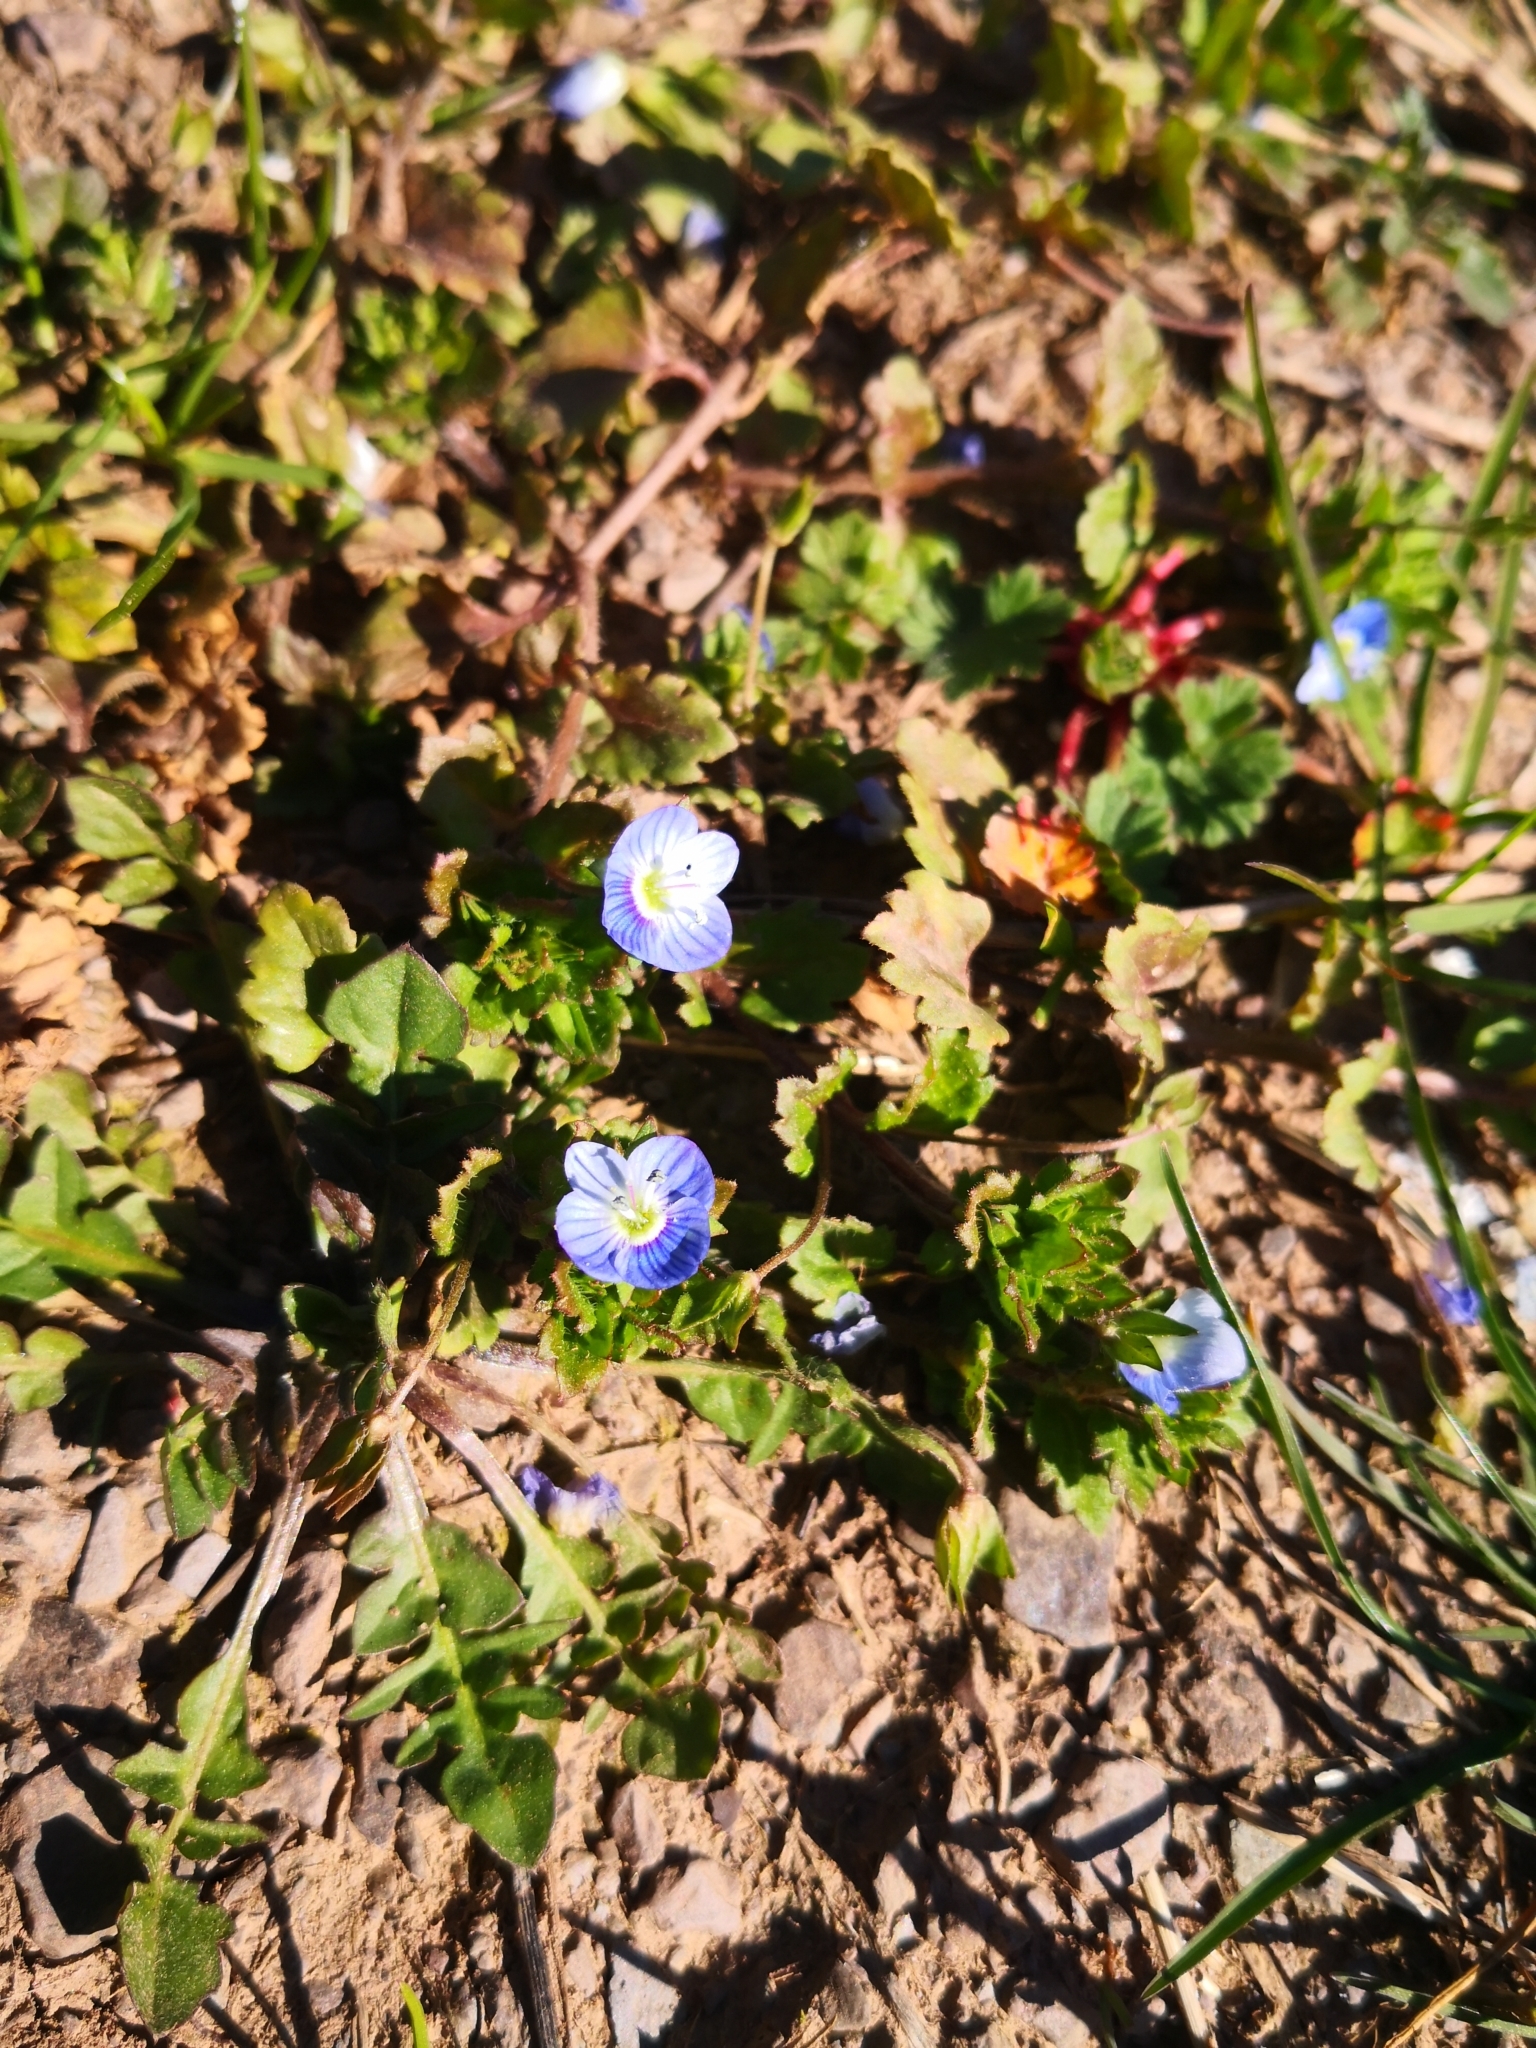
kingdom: Plantae
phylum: Tracheophyta
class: Magnoliopsida
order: Lamiales
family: Plantaginaceae
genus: Veronica
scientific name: Veronica persica
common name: Common field-speedwell
